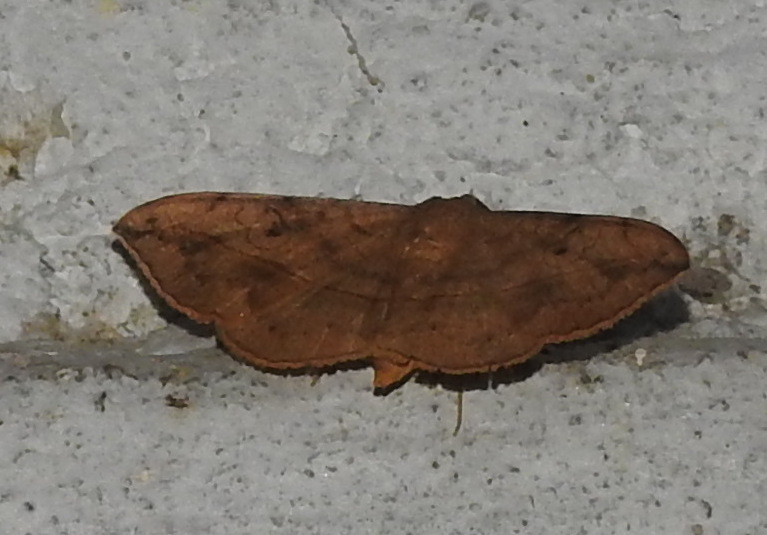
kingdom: Animalia
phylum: Arthropoda
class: Insecta
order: Lepidoptera
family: Erebidae
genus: Anticarsia
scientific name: Anticarsia irrorata
